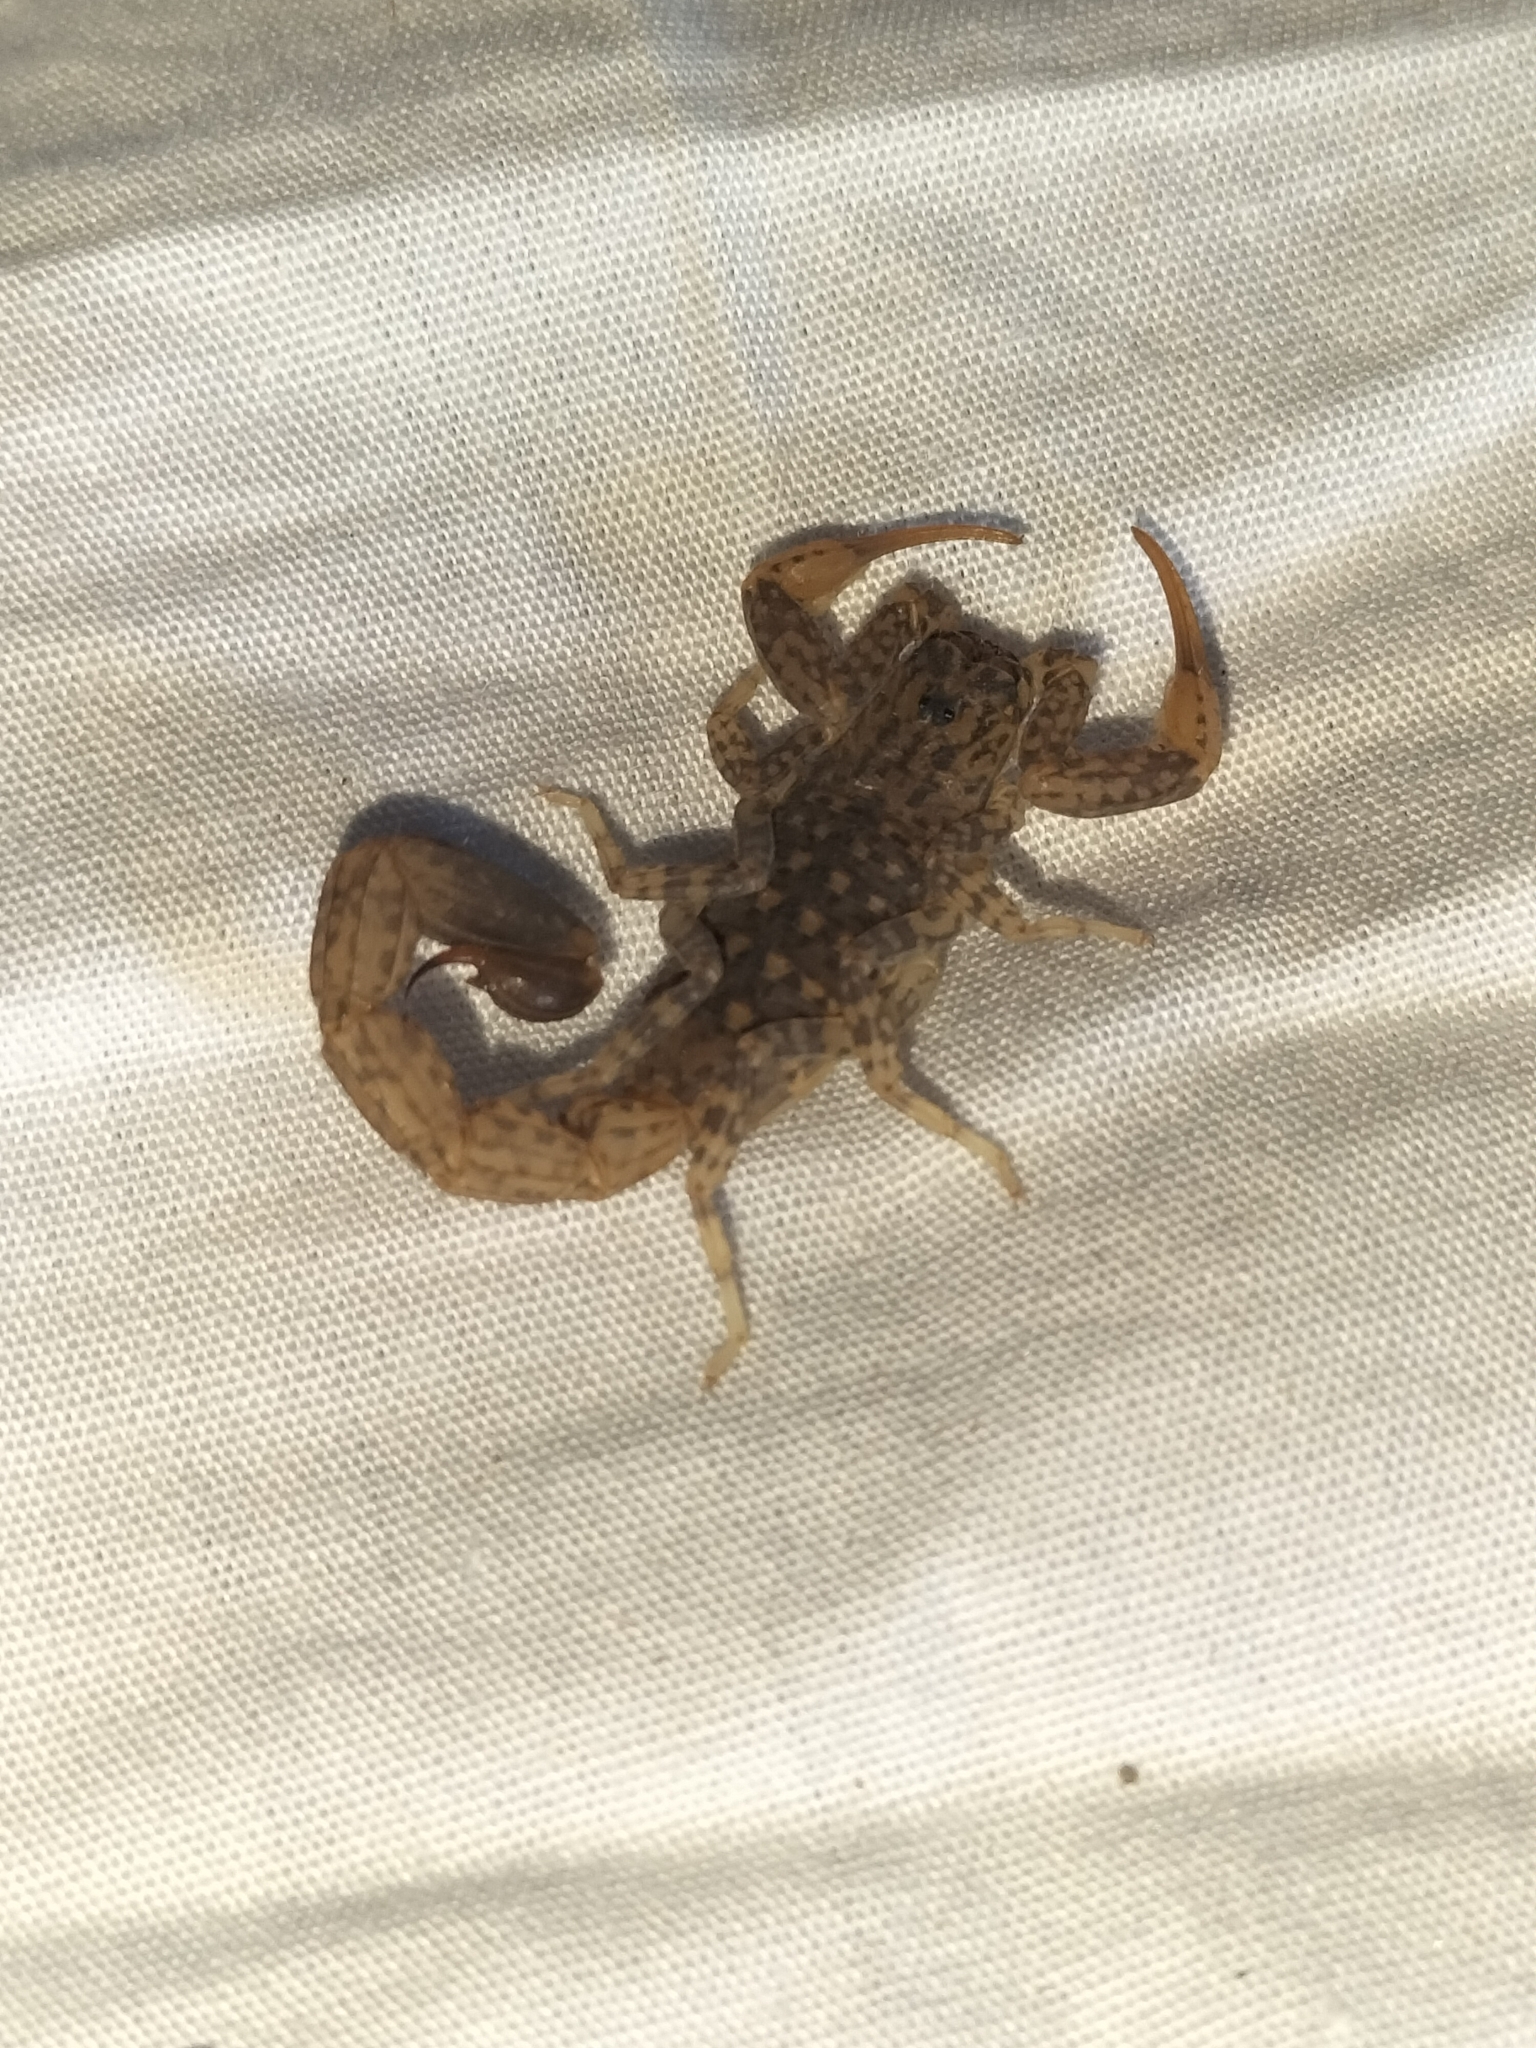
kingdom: Animalia
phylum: Arthropoda
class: Arachnida
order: Scorpiones
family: Buthidae
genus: Lychas
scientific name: Lychas variatus
